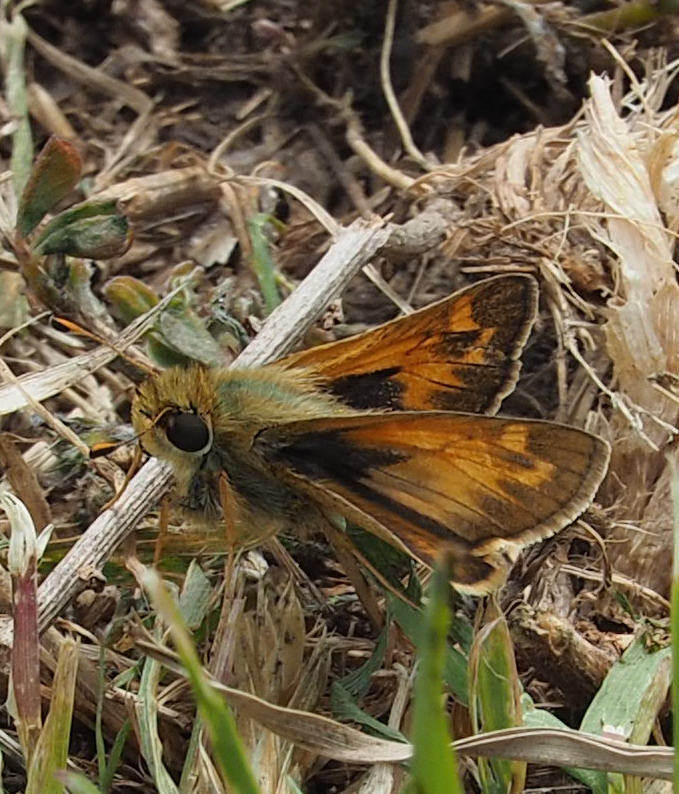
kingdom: Animalia
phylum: Arthropoda
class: Insecta
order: Lepidoptera
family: Hesperiidae
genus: Atalopedes
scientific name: Atalopedes
